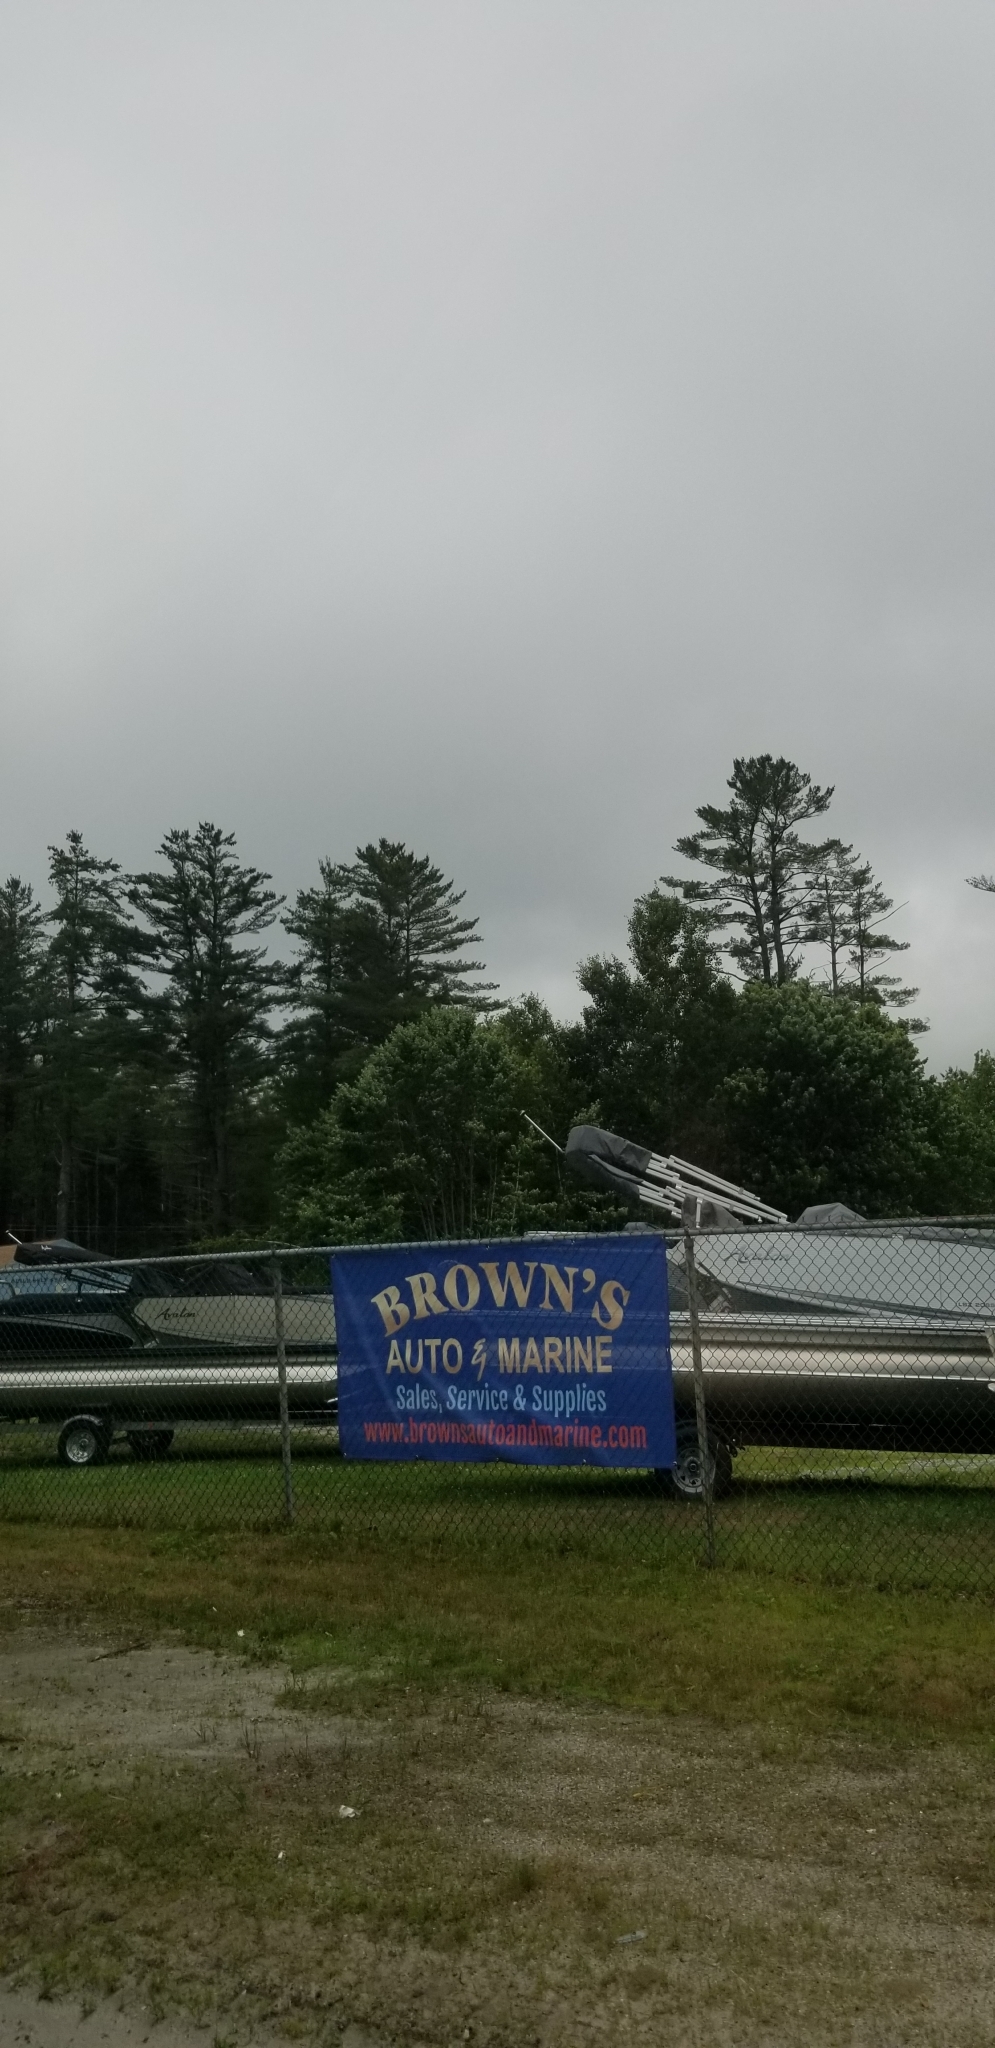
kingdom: Plantae
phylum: Tracheophyta
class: Pinopsida
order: Pinales
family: Pinaceae
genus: Pinus
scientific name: Pinus strobus
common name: Weymouth pine
